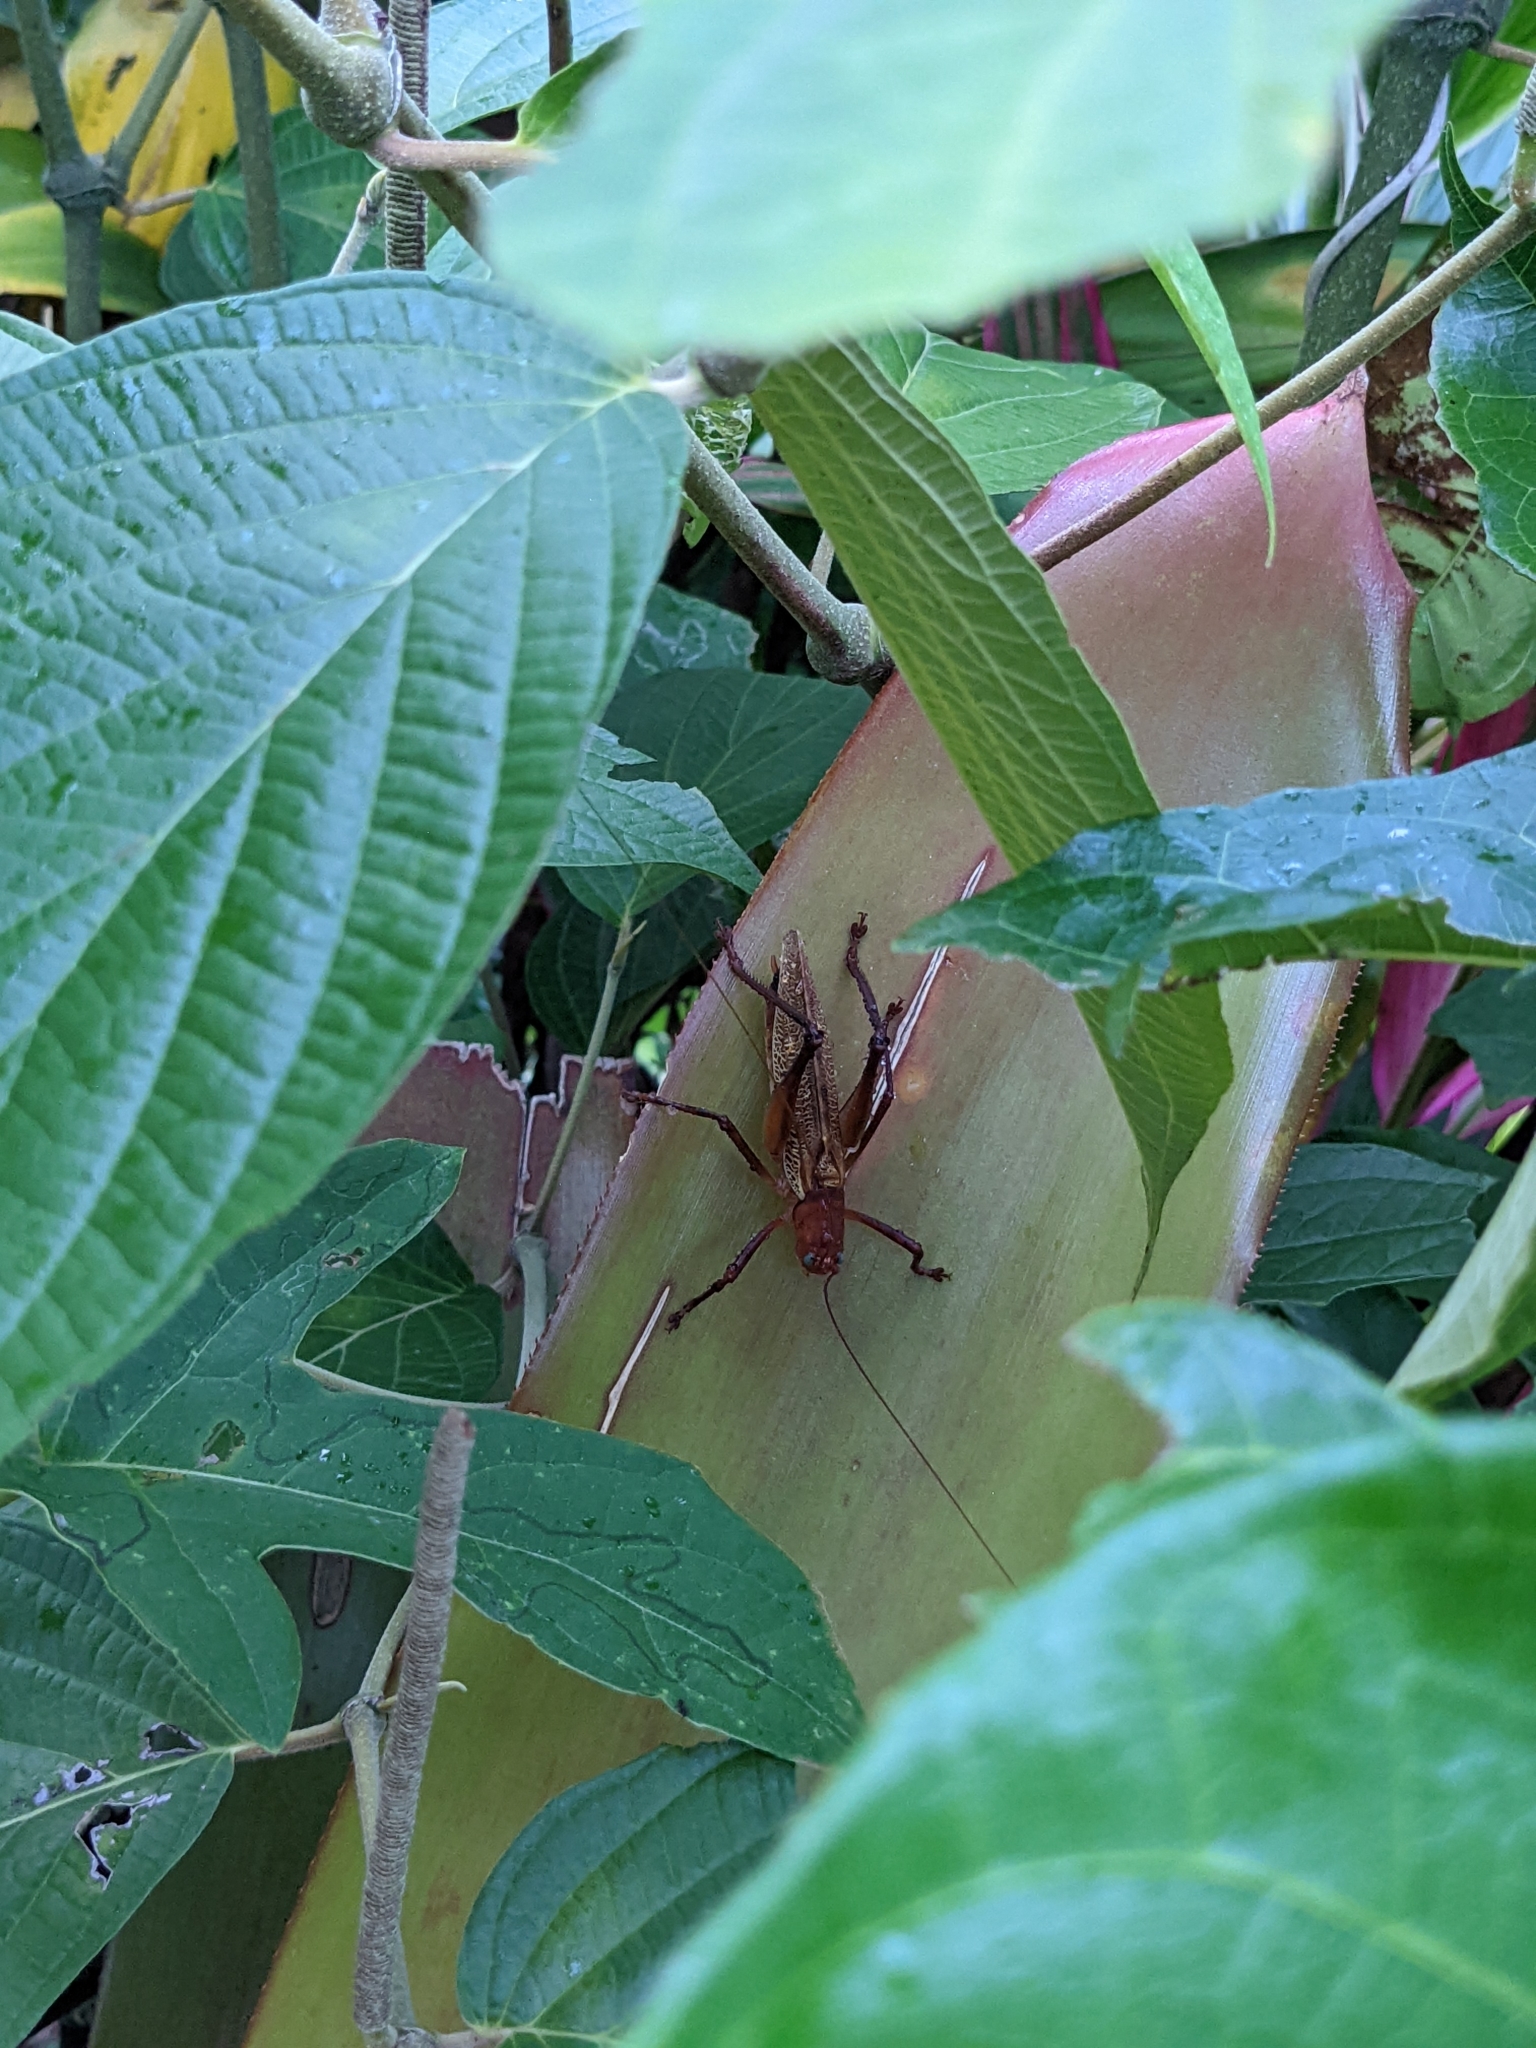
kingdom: Animalia
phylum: Arthropoda
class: Insecta
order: Orthoptera
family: Tettigoniidae
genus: Ischnomela
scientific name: Ischnomela pulchripennis
